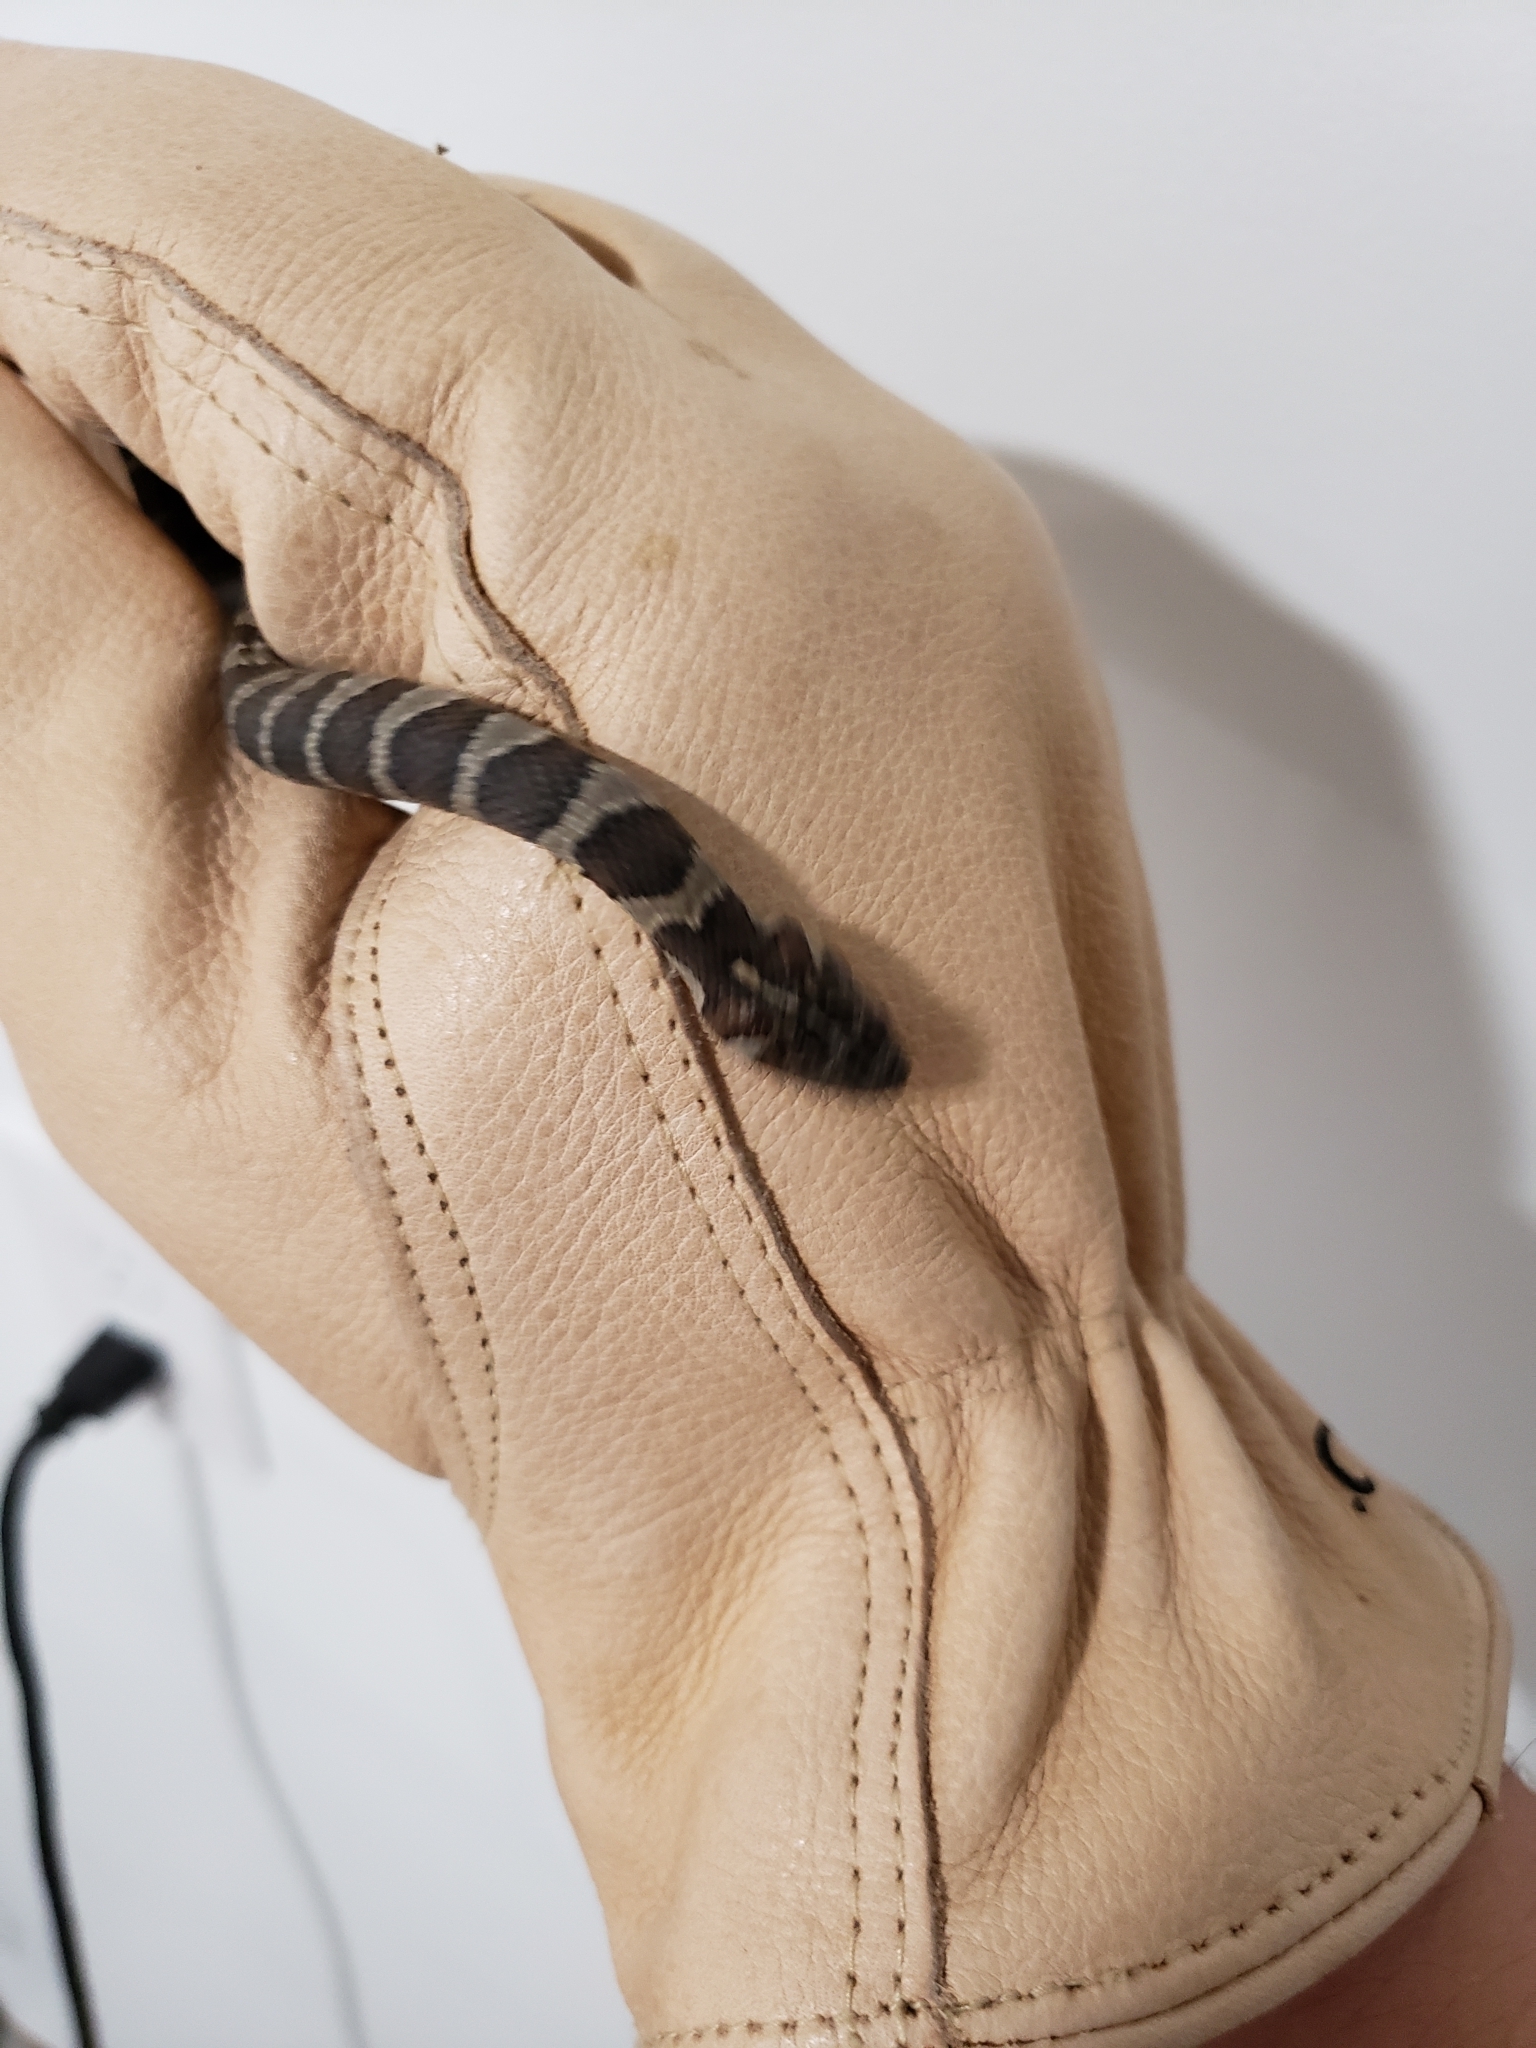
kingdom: Animalia
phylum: Chordata
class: Squamata
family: Colubridae
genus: Nerodia
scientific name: Nerodia sipedon
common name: Northern water snake
